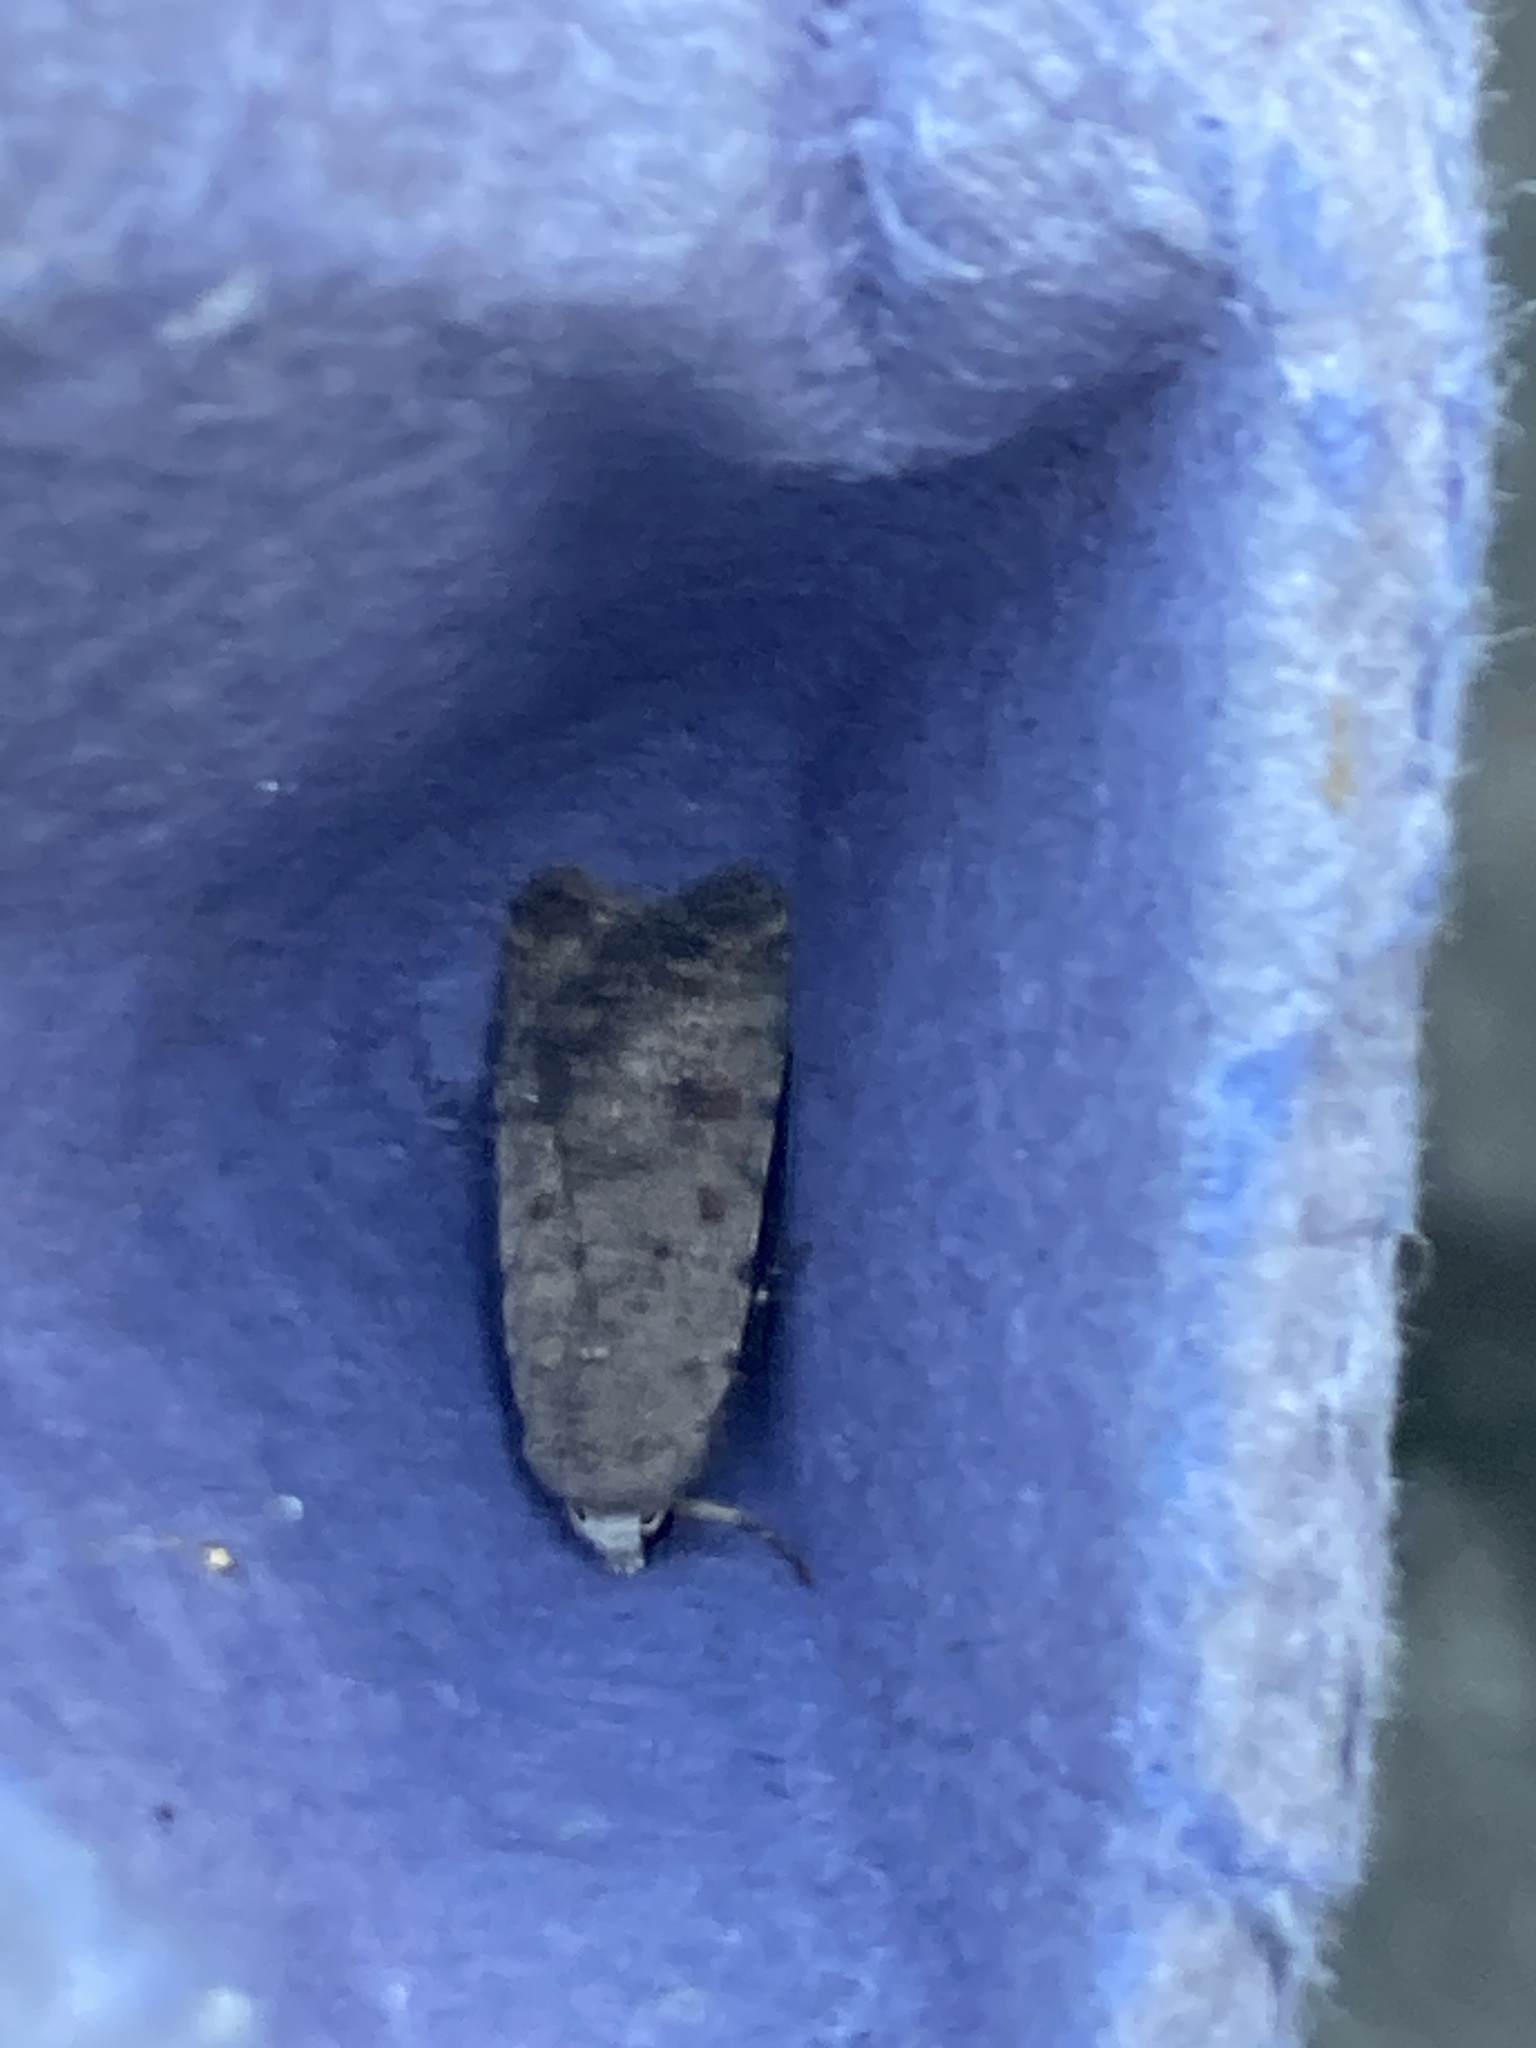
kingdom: Animalia
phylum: Arthropoda
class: Insecta
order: Lepidoptera
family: Noctuidae
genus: Caradrina
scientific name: Caradrina clavipalpis
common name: Pale mottled willow
